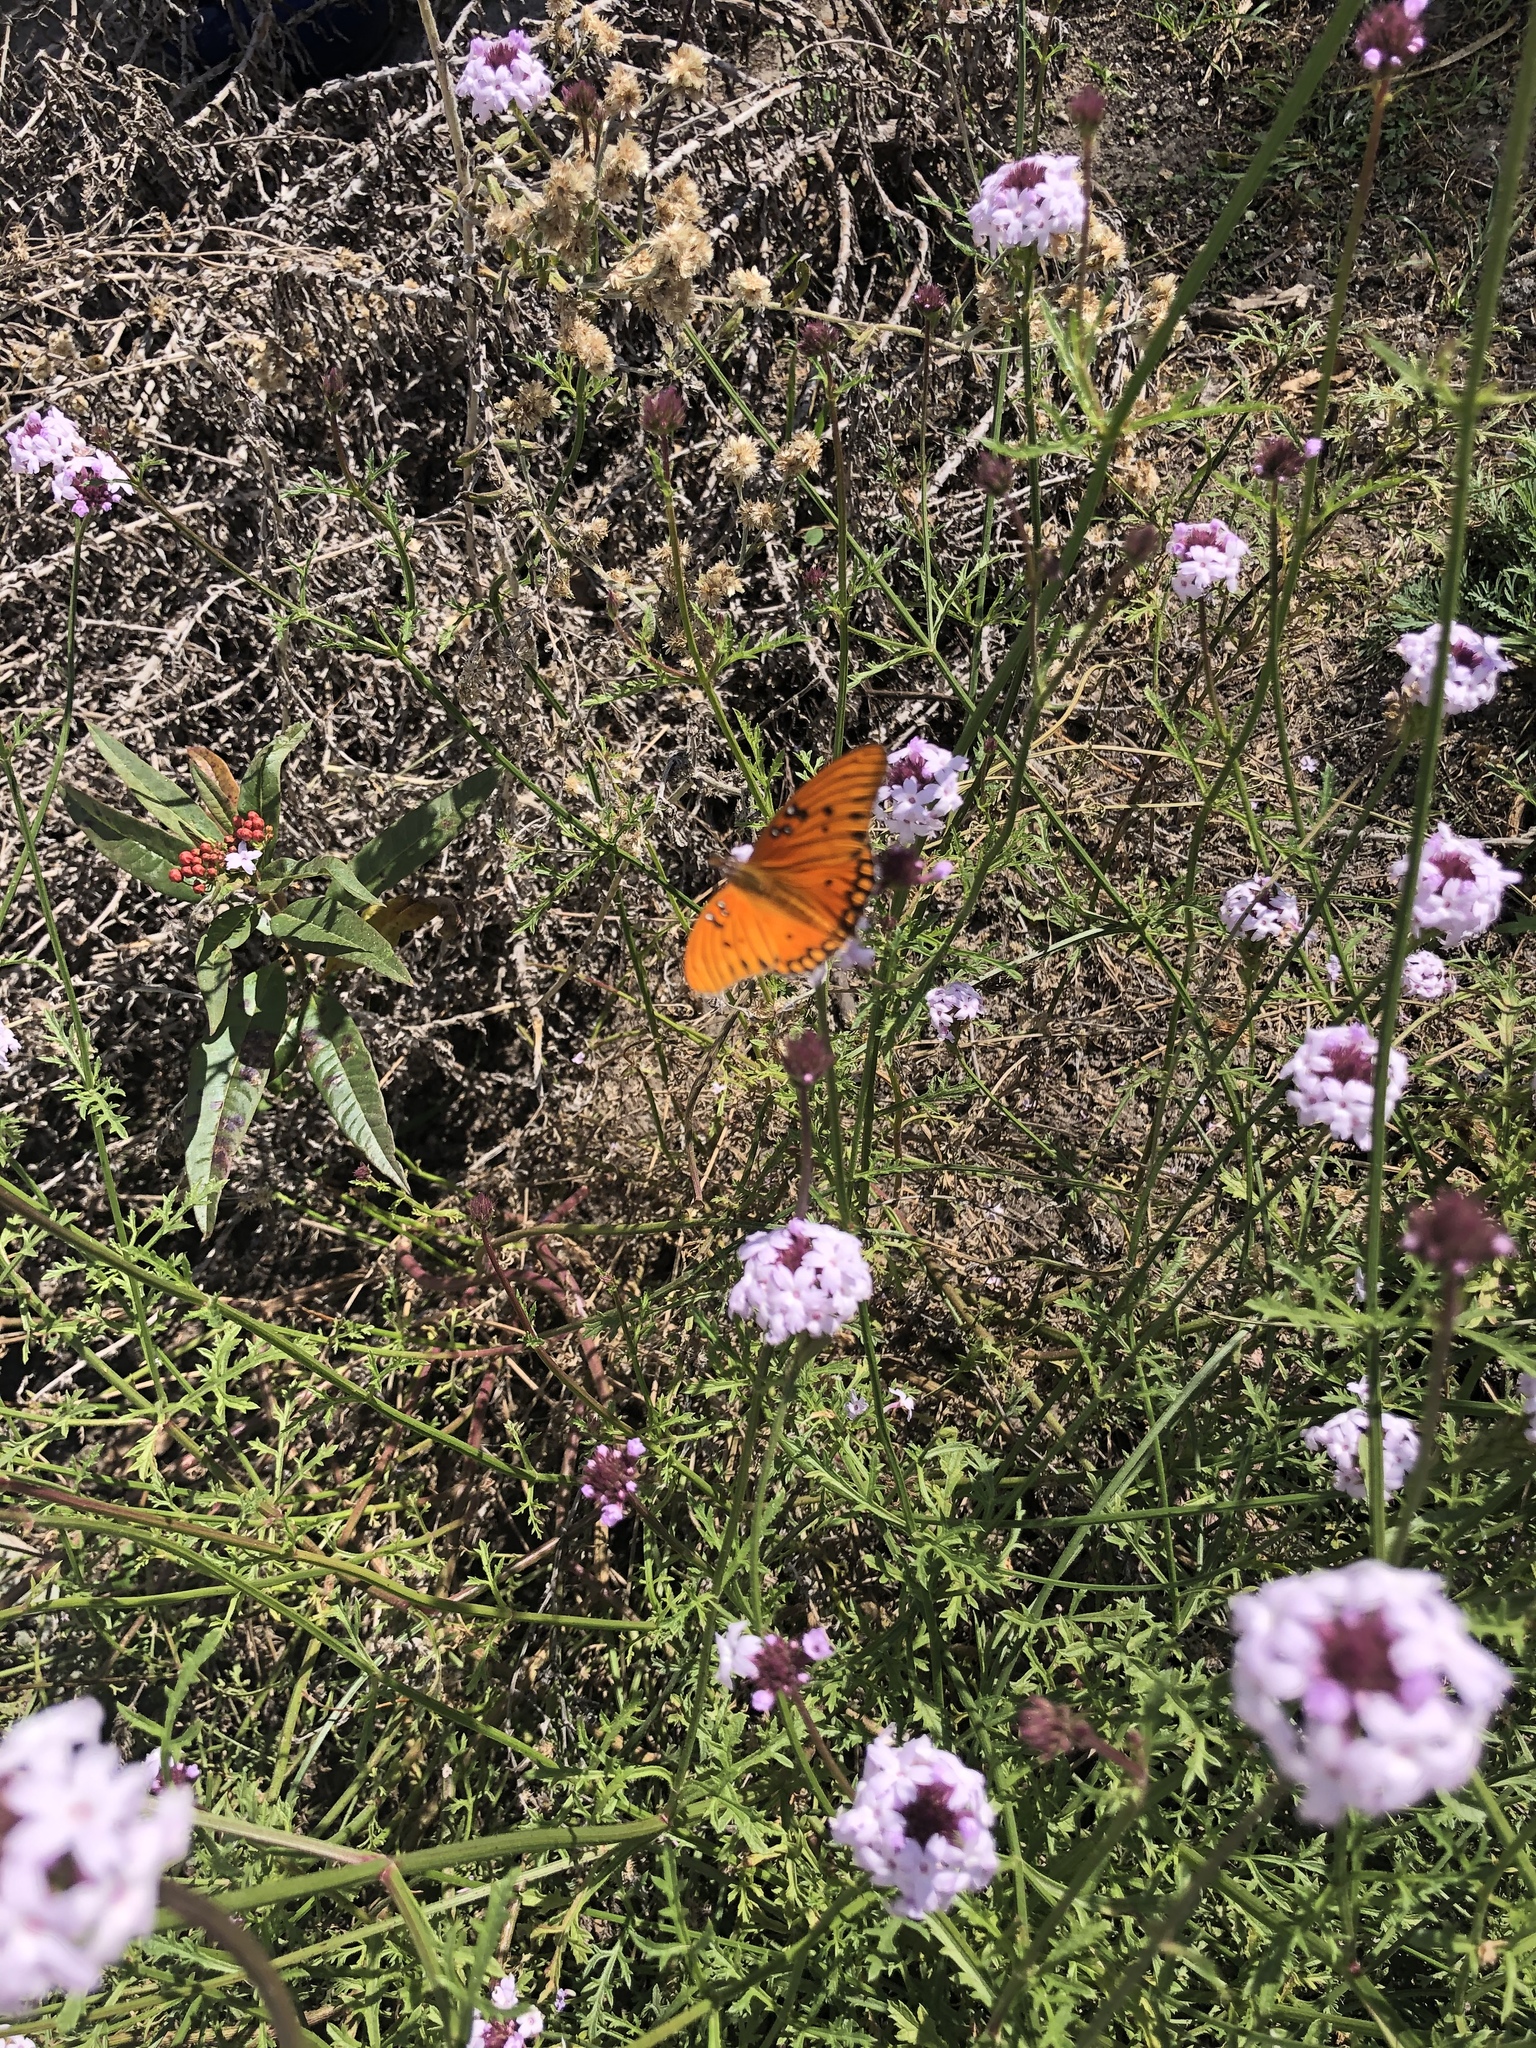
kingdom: Animalia
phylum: Arthropoda
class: Insecta
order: Lepidoptera
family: Nymphalidae
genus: Dione
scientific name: Dione vanillae
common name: Gulf fritillary
